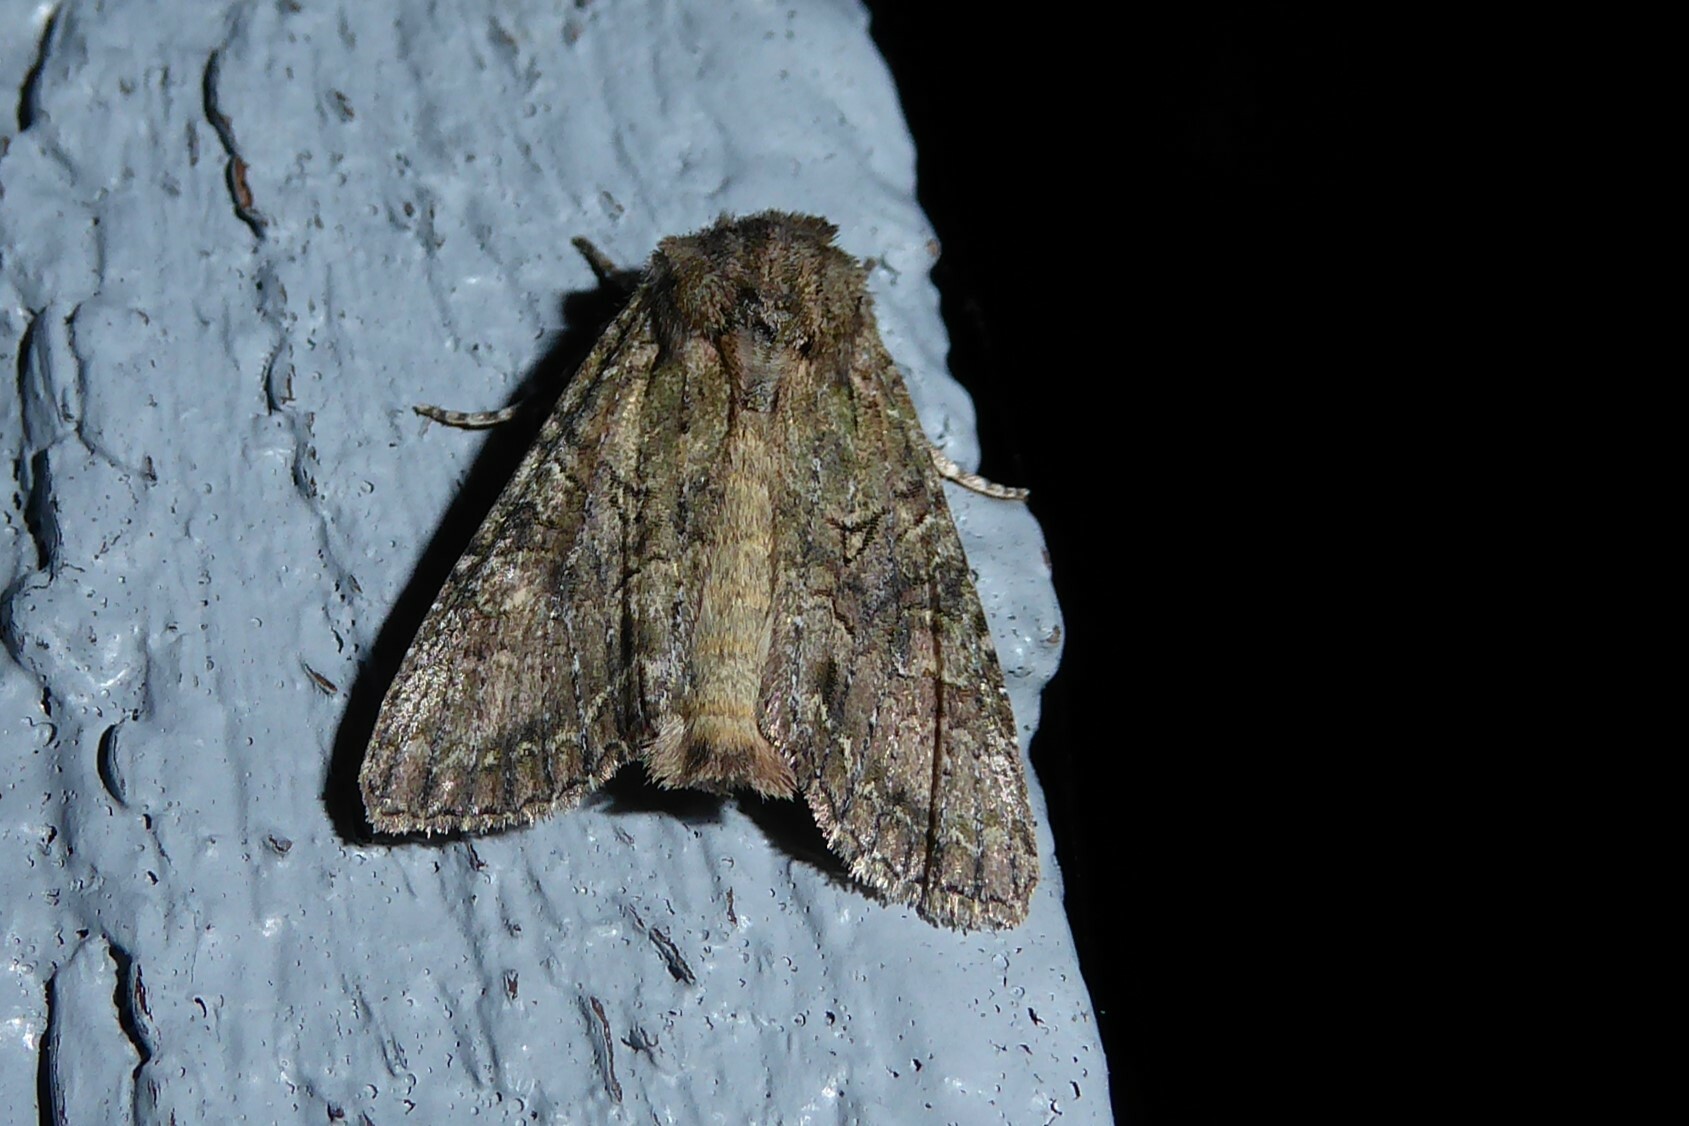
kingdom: Animalia
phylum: Arthropoda
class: Insecta
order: Lepidoptera
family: Noctuidae
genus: Ichneutica
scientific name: Ichneutica mutans
